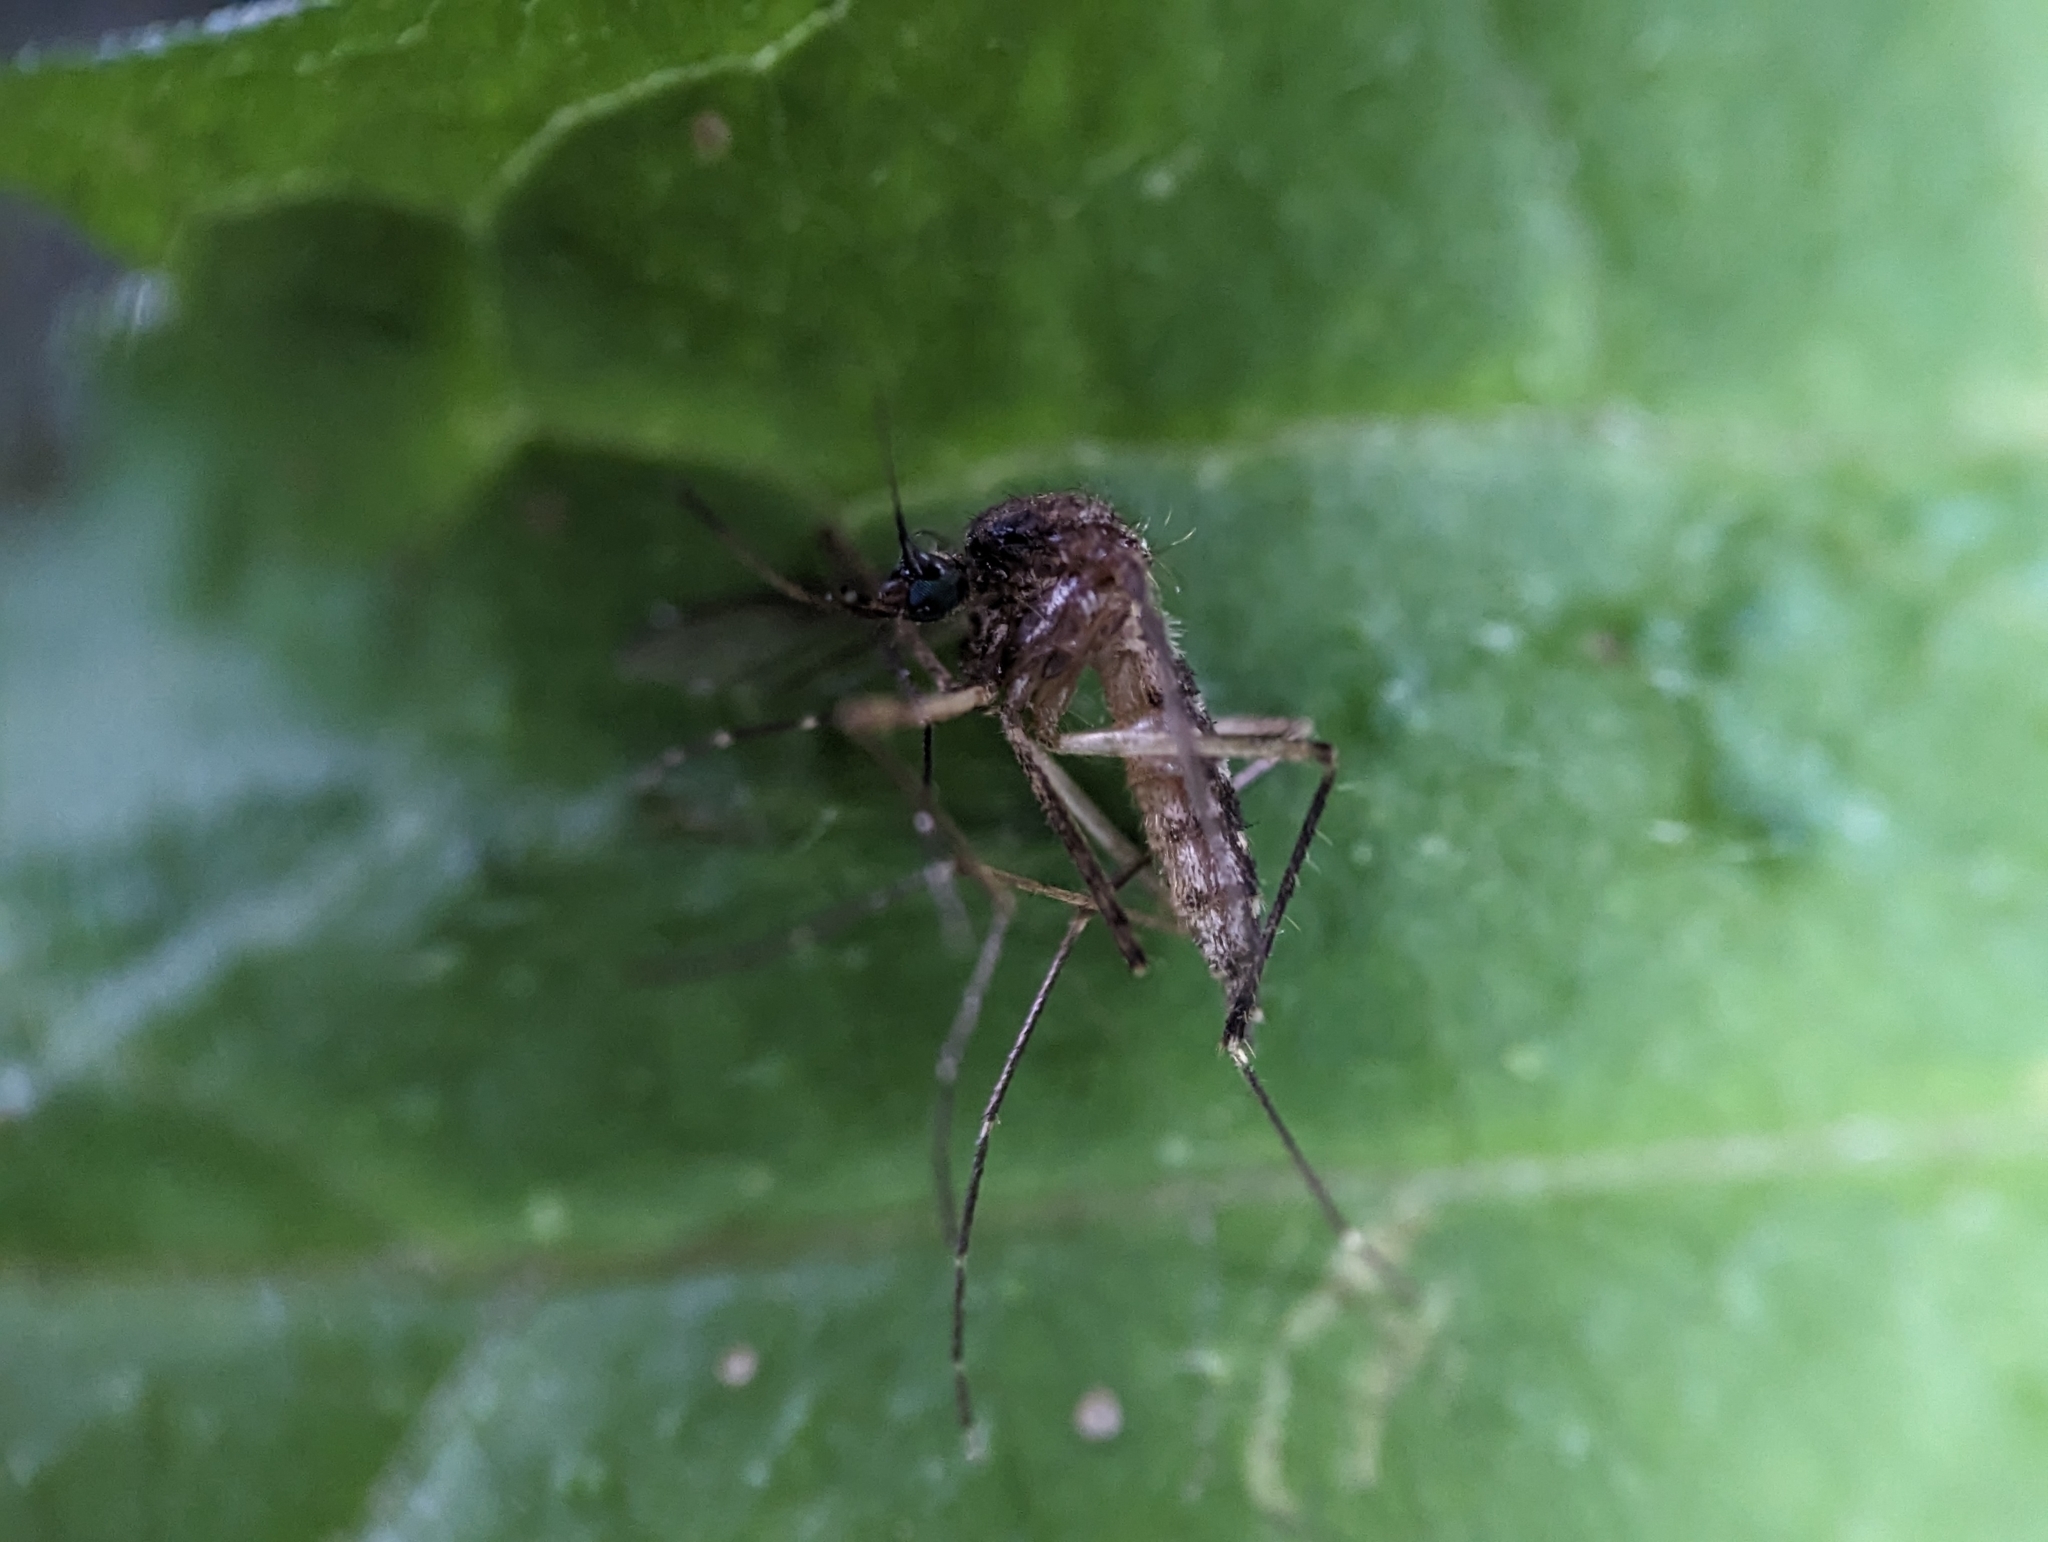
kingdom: Animalia
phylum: Arthropoda
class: Insecta
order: Diptera
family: Culicidae
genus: Aedes
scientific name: Aedes vexans
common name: Inland floodwater mosquito
